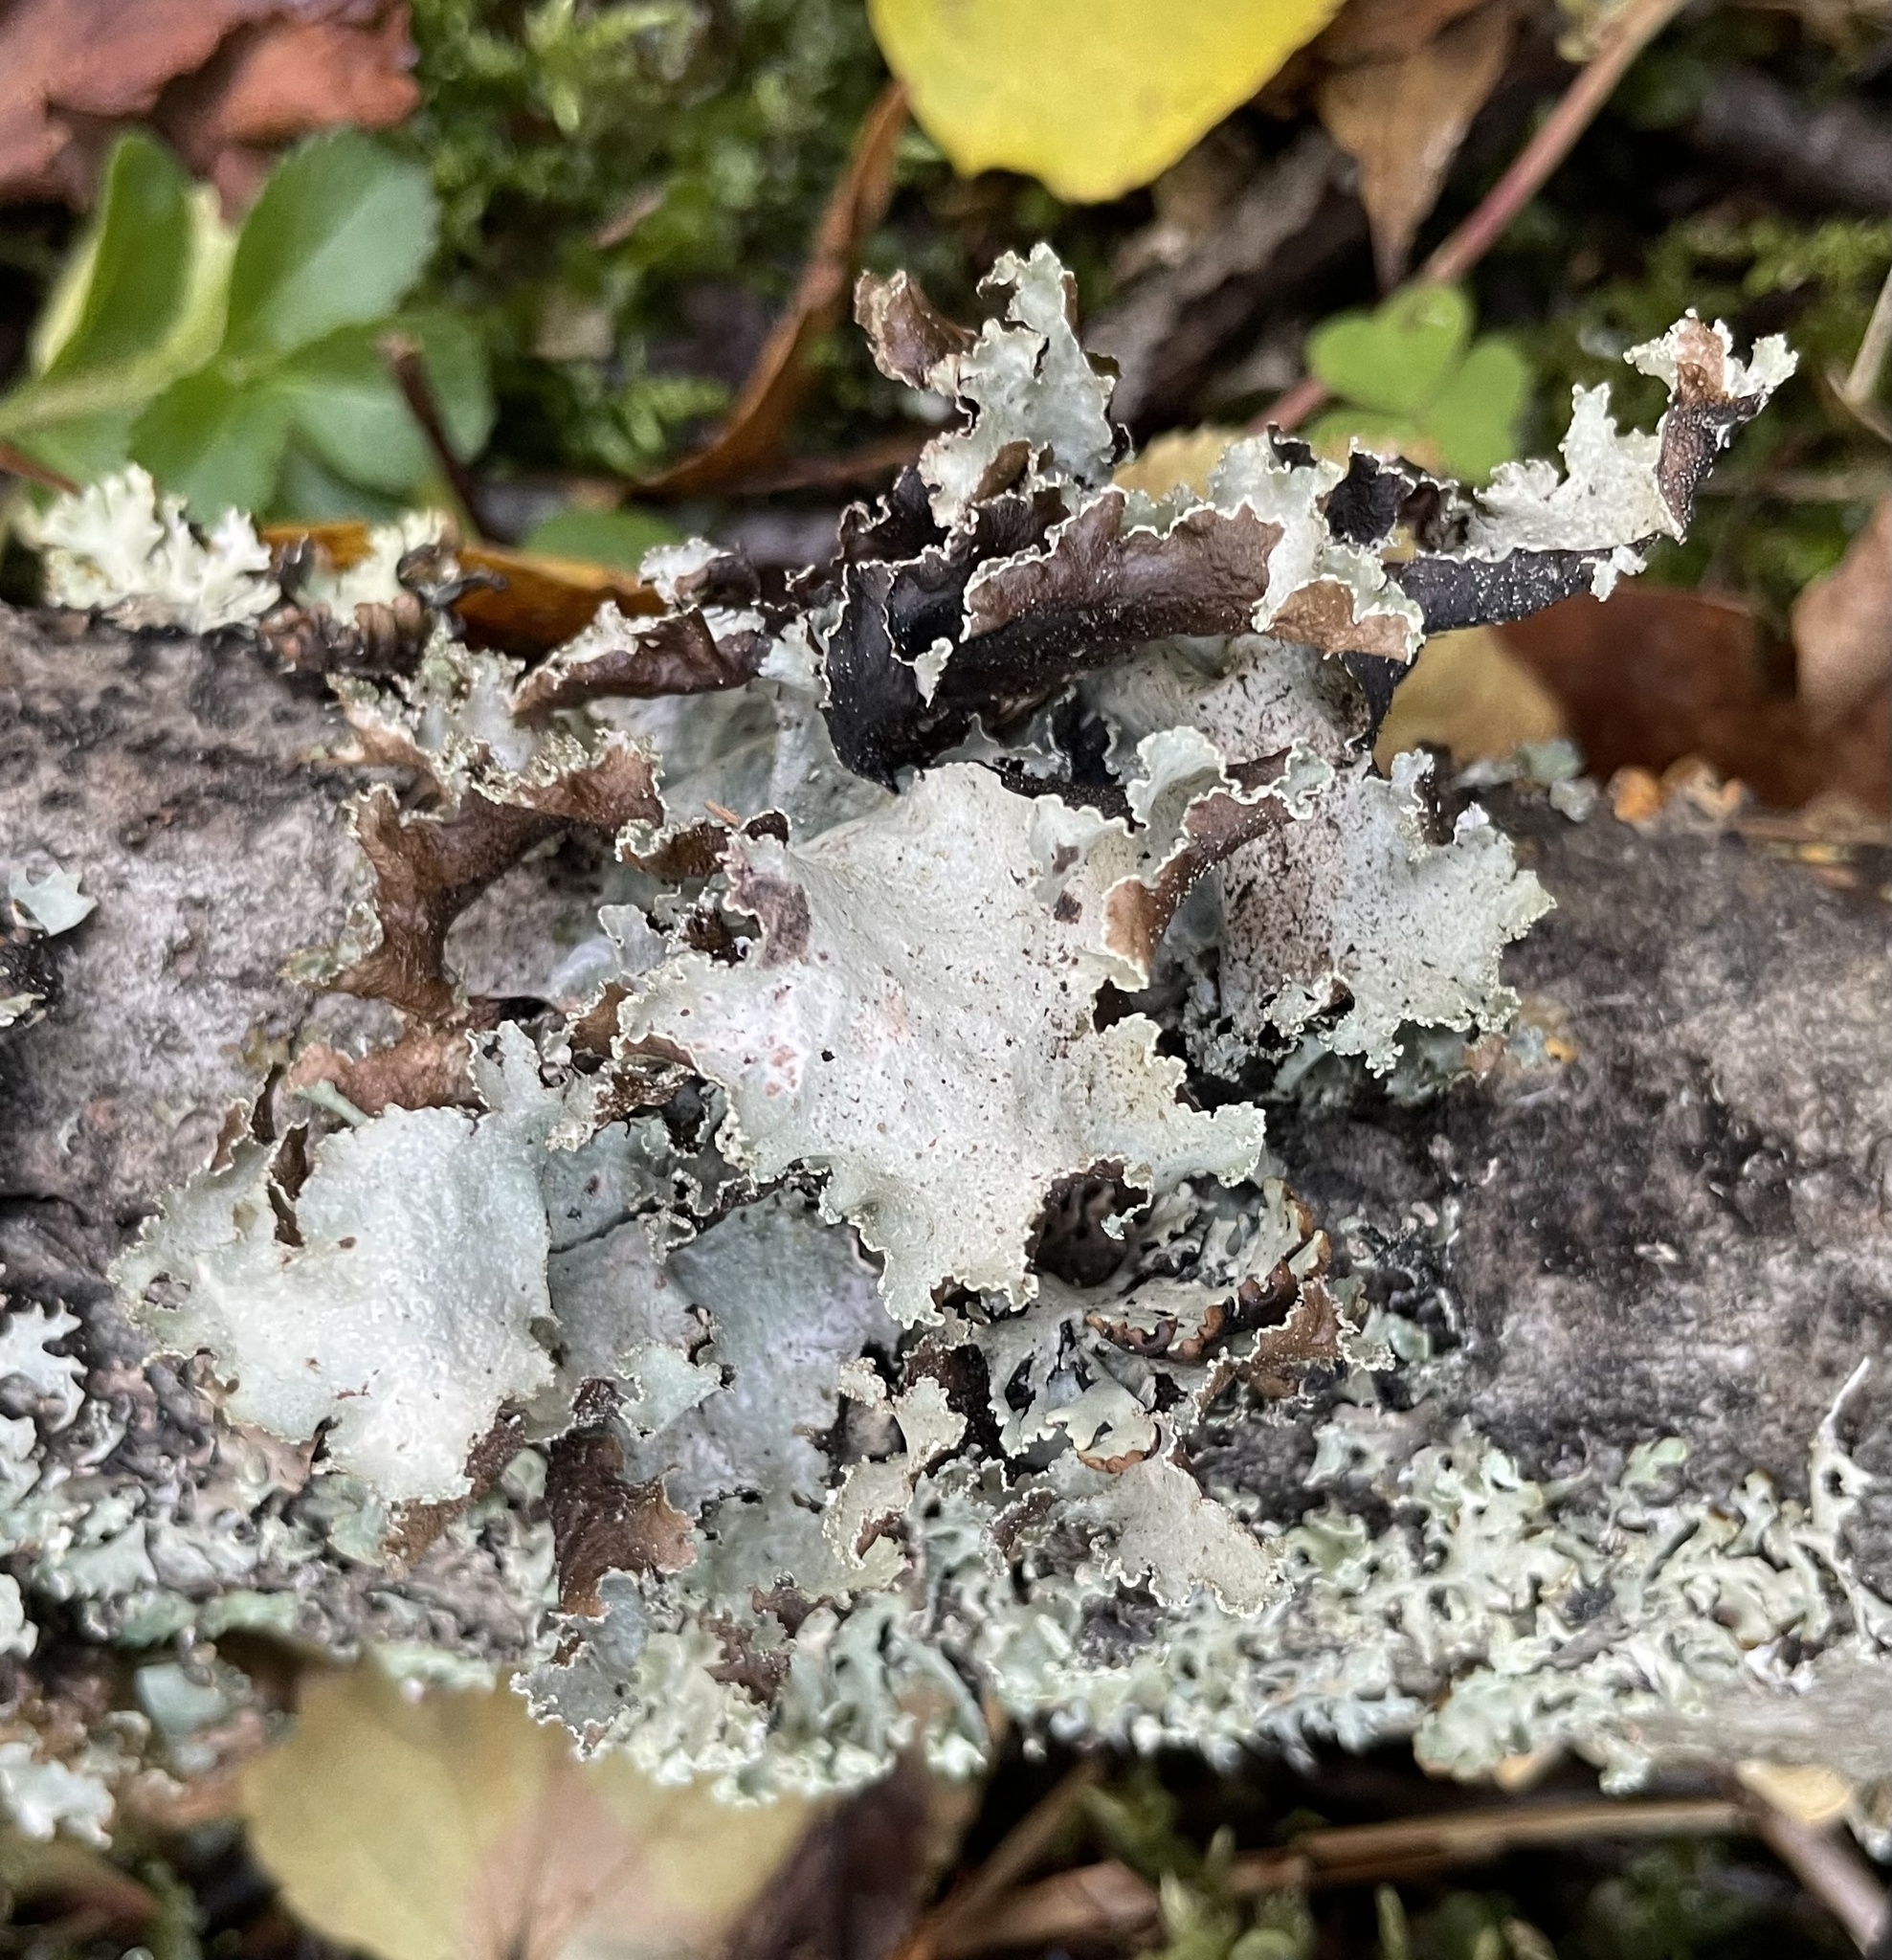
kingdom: Fungi
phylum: Ascomycota
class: Lecanoromycetes
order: Lecanorales
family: Parmeliaceae
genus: Platismatia
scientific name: Platismatia glauca
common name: Varied rag lichen
